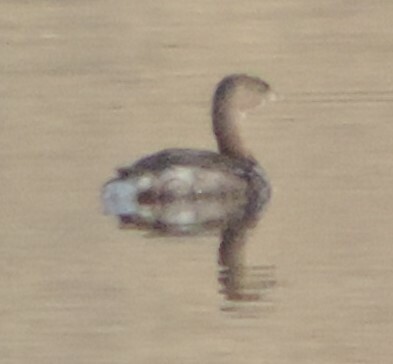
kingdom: Animalia
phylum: Chordata
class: Aves
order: Podicipediformes
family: Podicipedidae
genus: Podilymbus
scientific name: Podilymbus podiceps
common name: Pied-billed grebe
